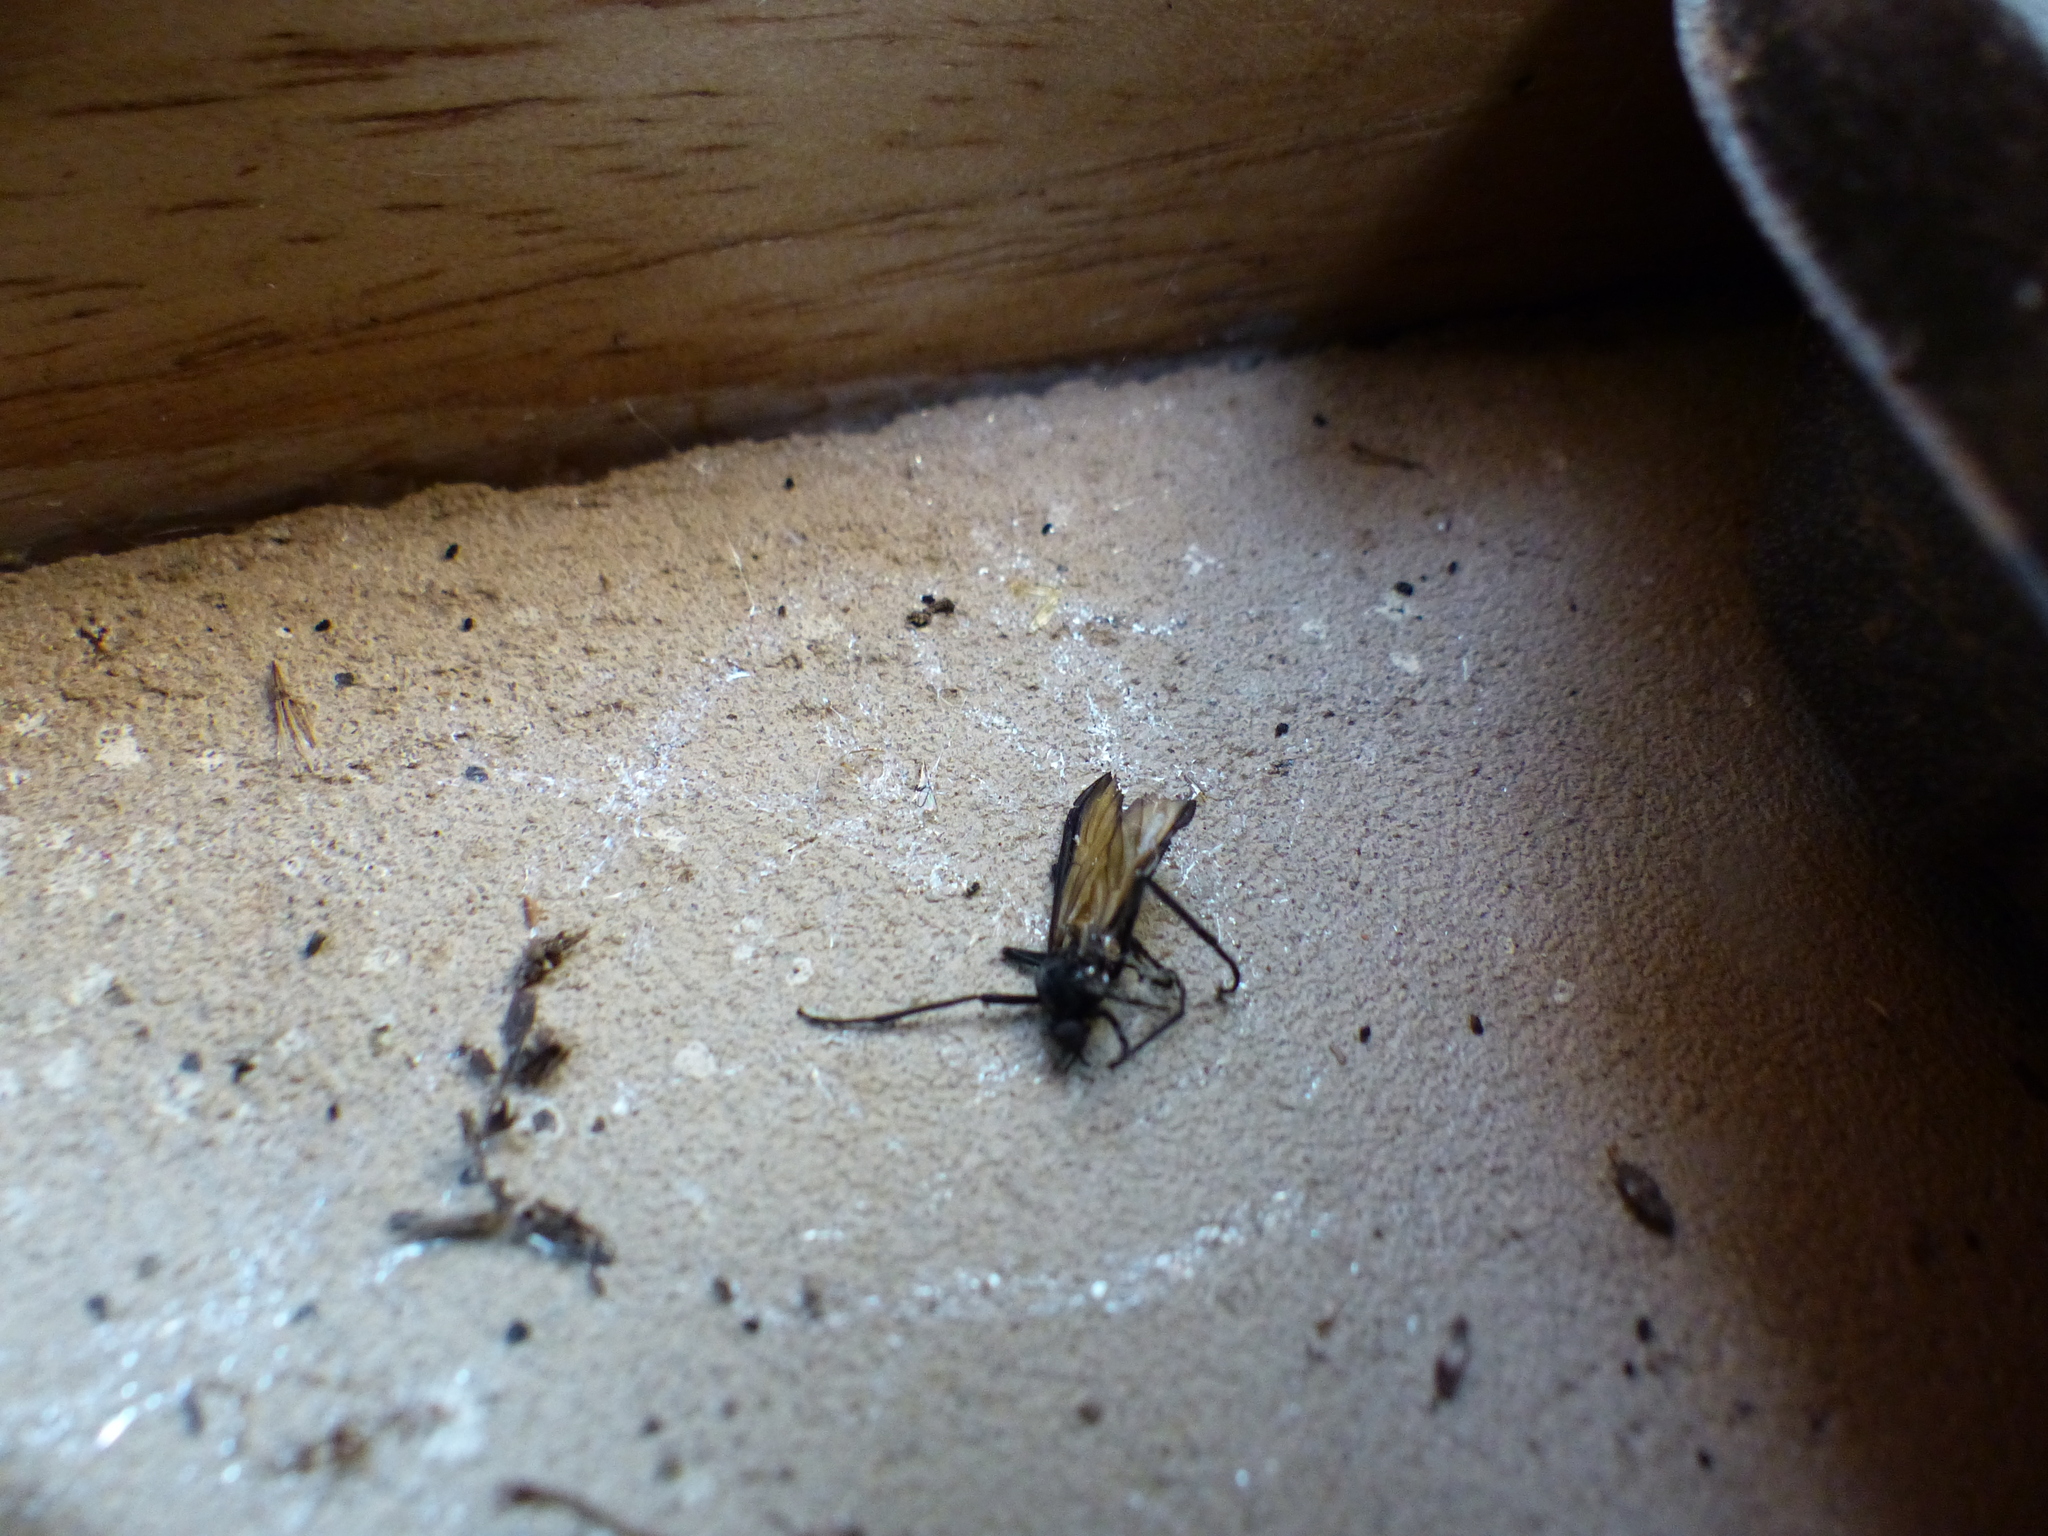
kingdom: Animalia
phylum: Arthropoda
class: Insecta
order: Diptera
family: Bibionidae
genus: Plecia
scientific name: Plecia imperialis
